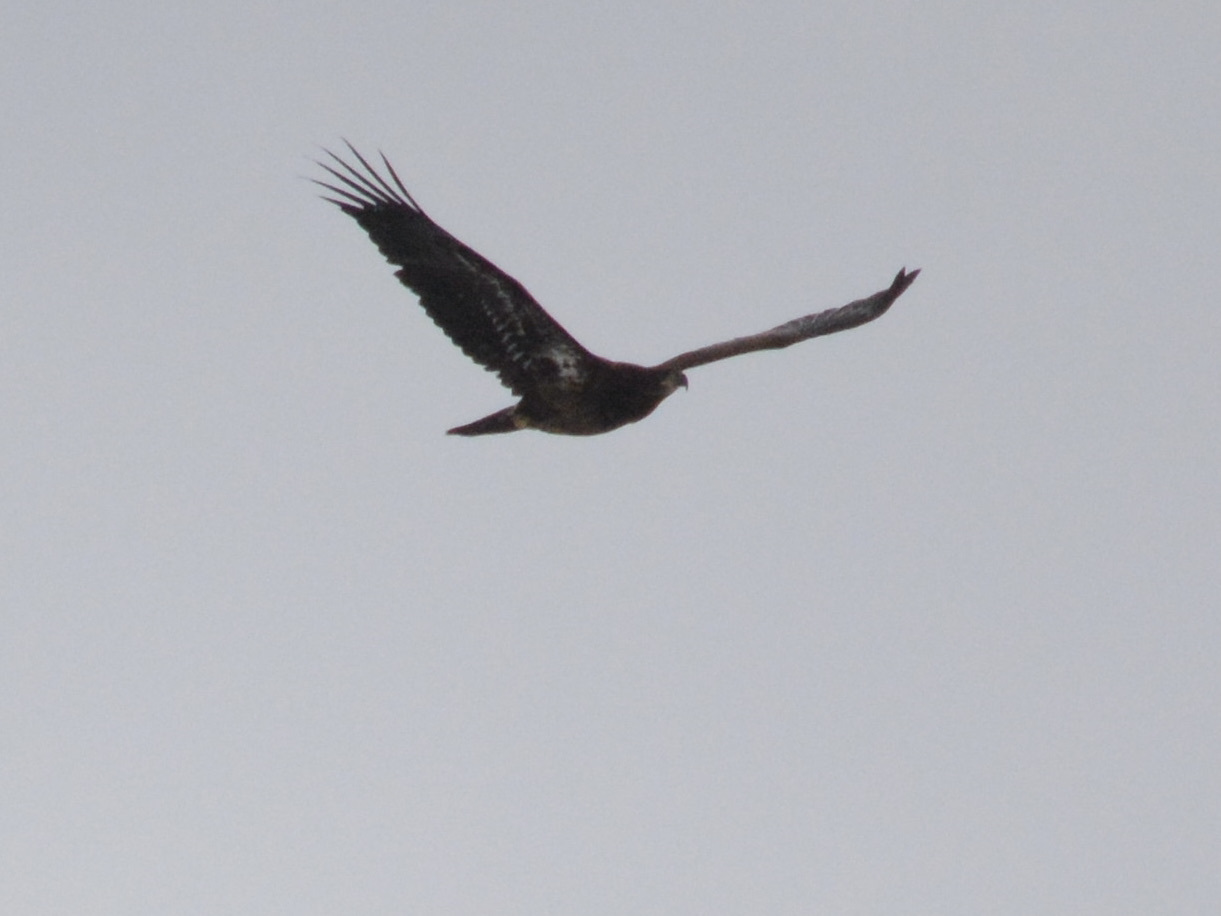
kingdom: Animalia
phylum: Chordata
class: Aves
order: Accipitriformes
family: Accipitridae
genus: Haliaeetus
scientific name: Haliaeetus leucocephalus
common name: Bald eagle
